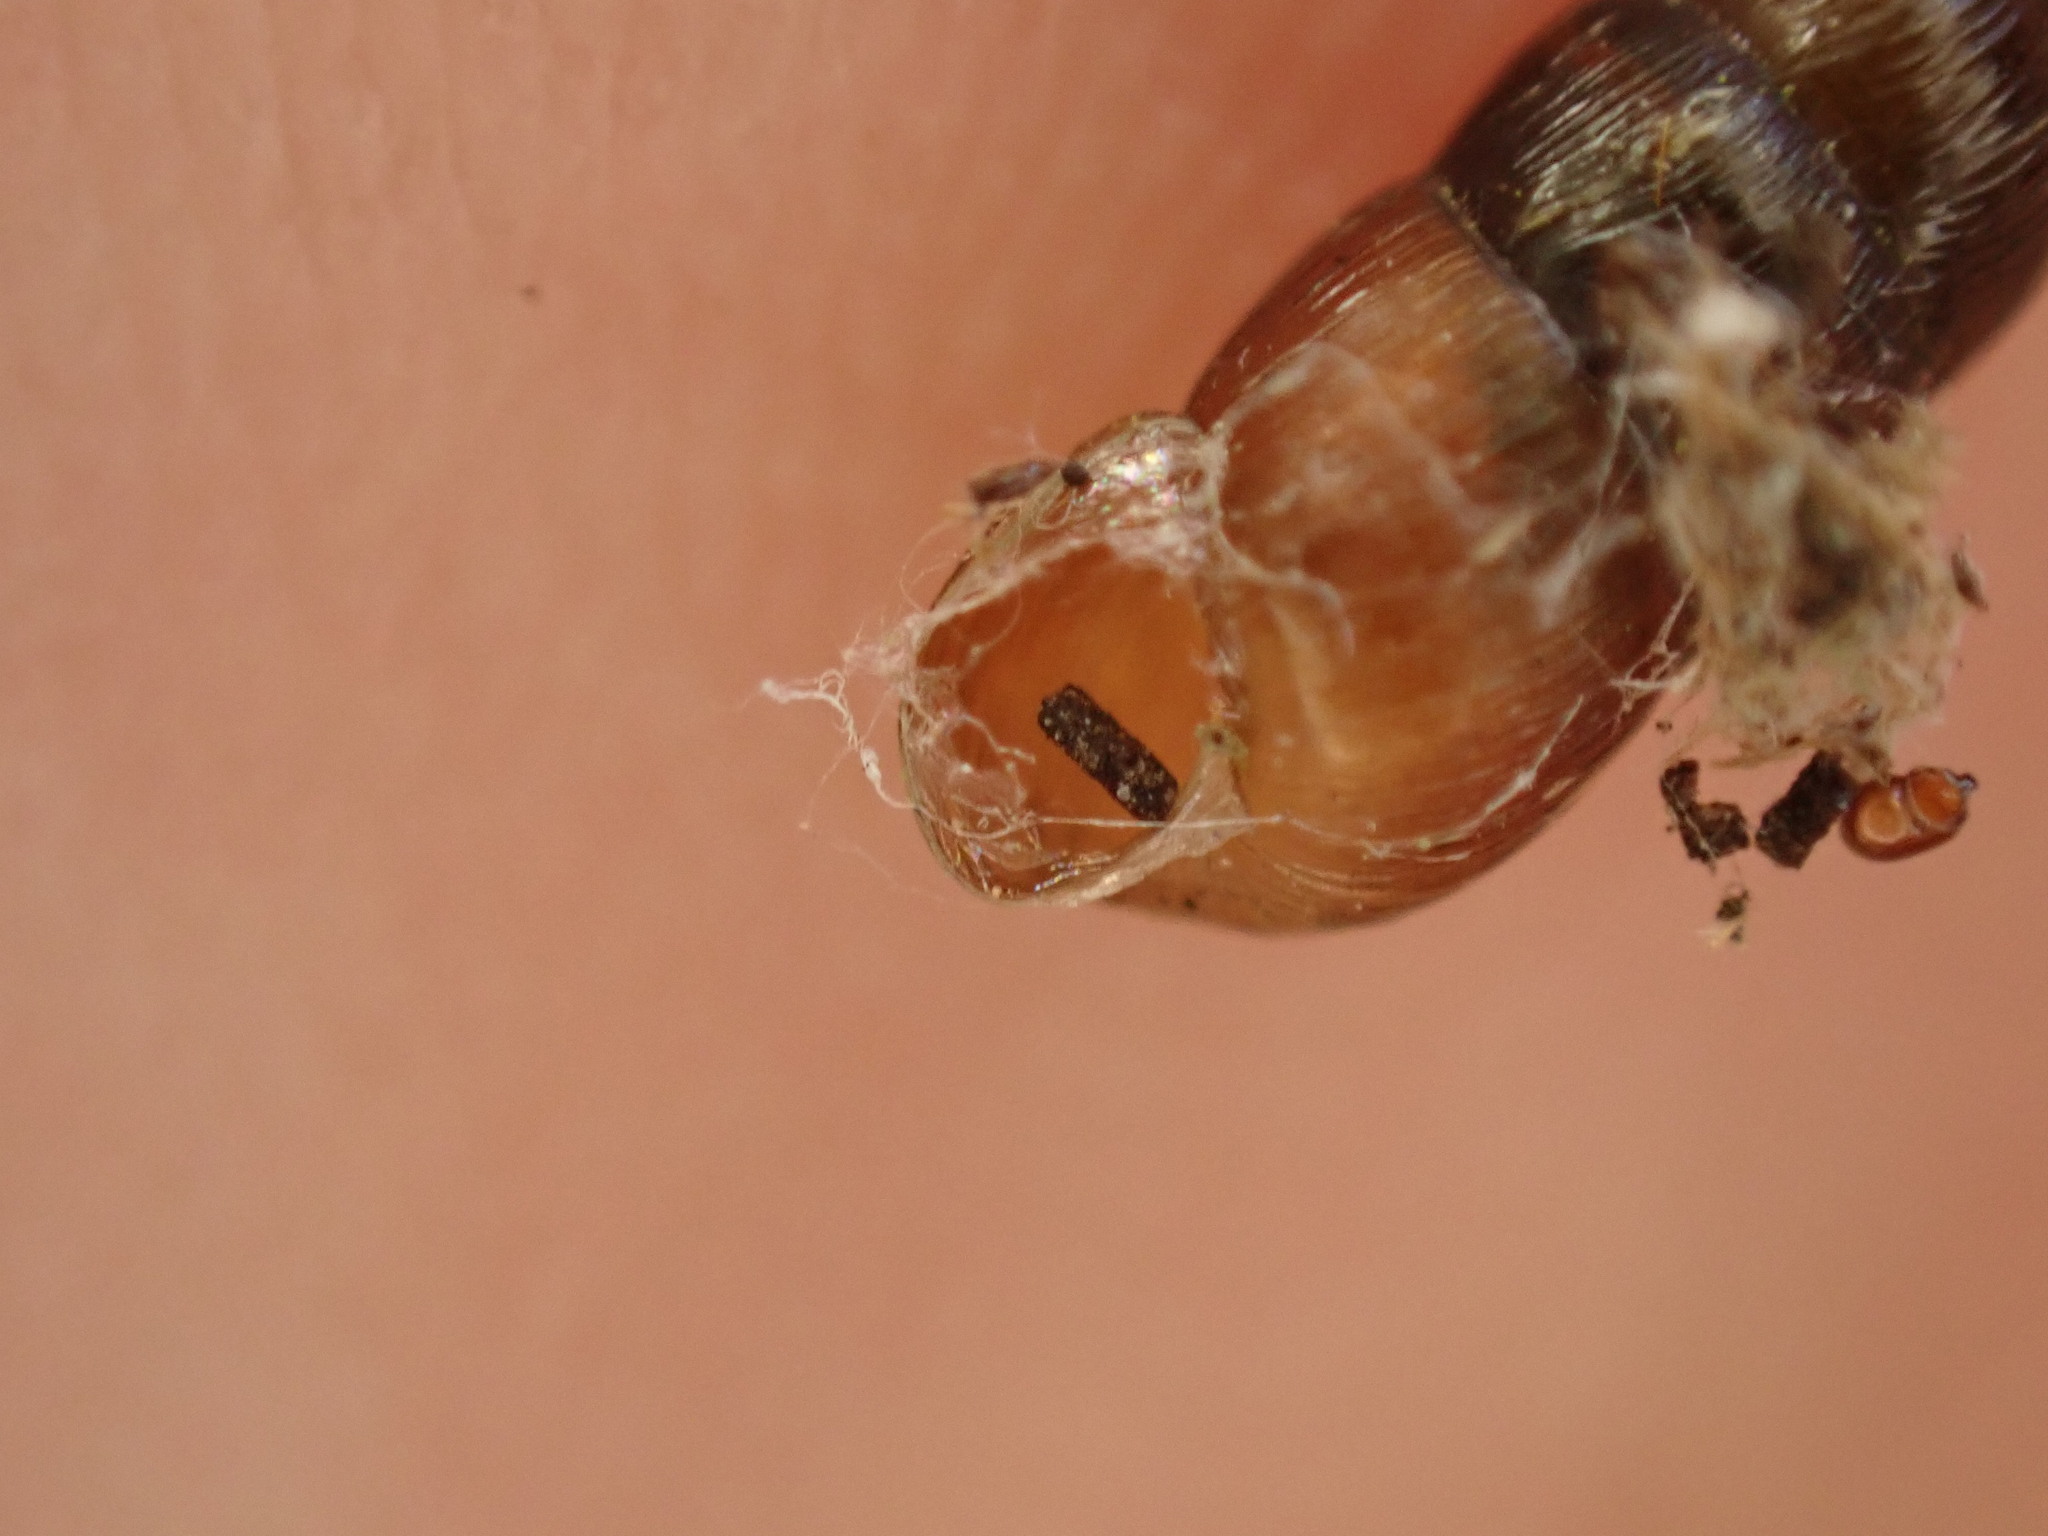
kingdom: Animalia
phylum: Mollusca
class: Gastropoda
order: Stylommatophora
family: Clausiliidae
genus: Balea
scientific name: Balea perversa
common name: Tree snail
